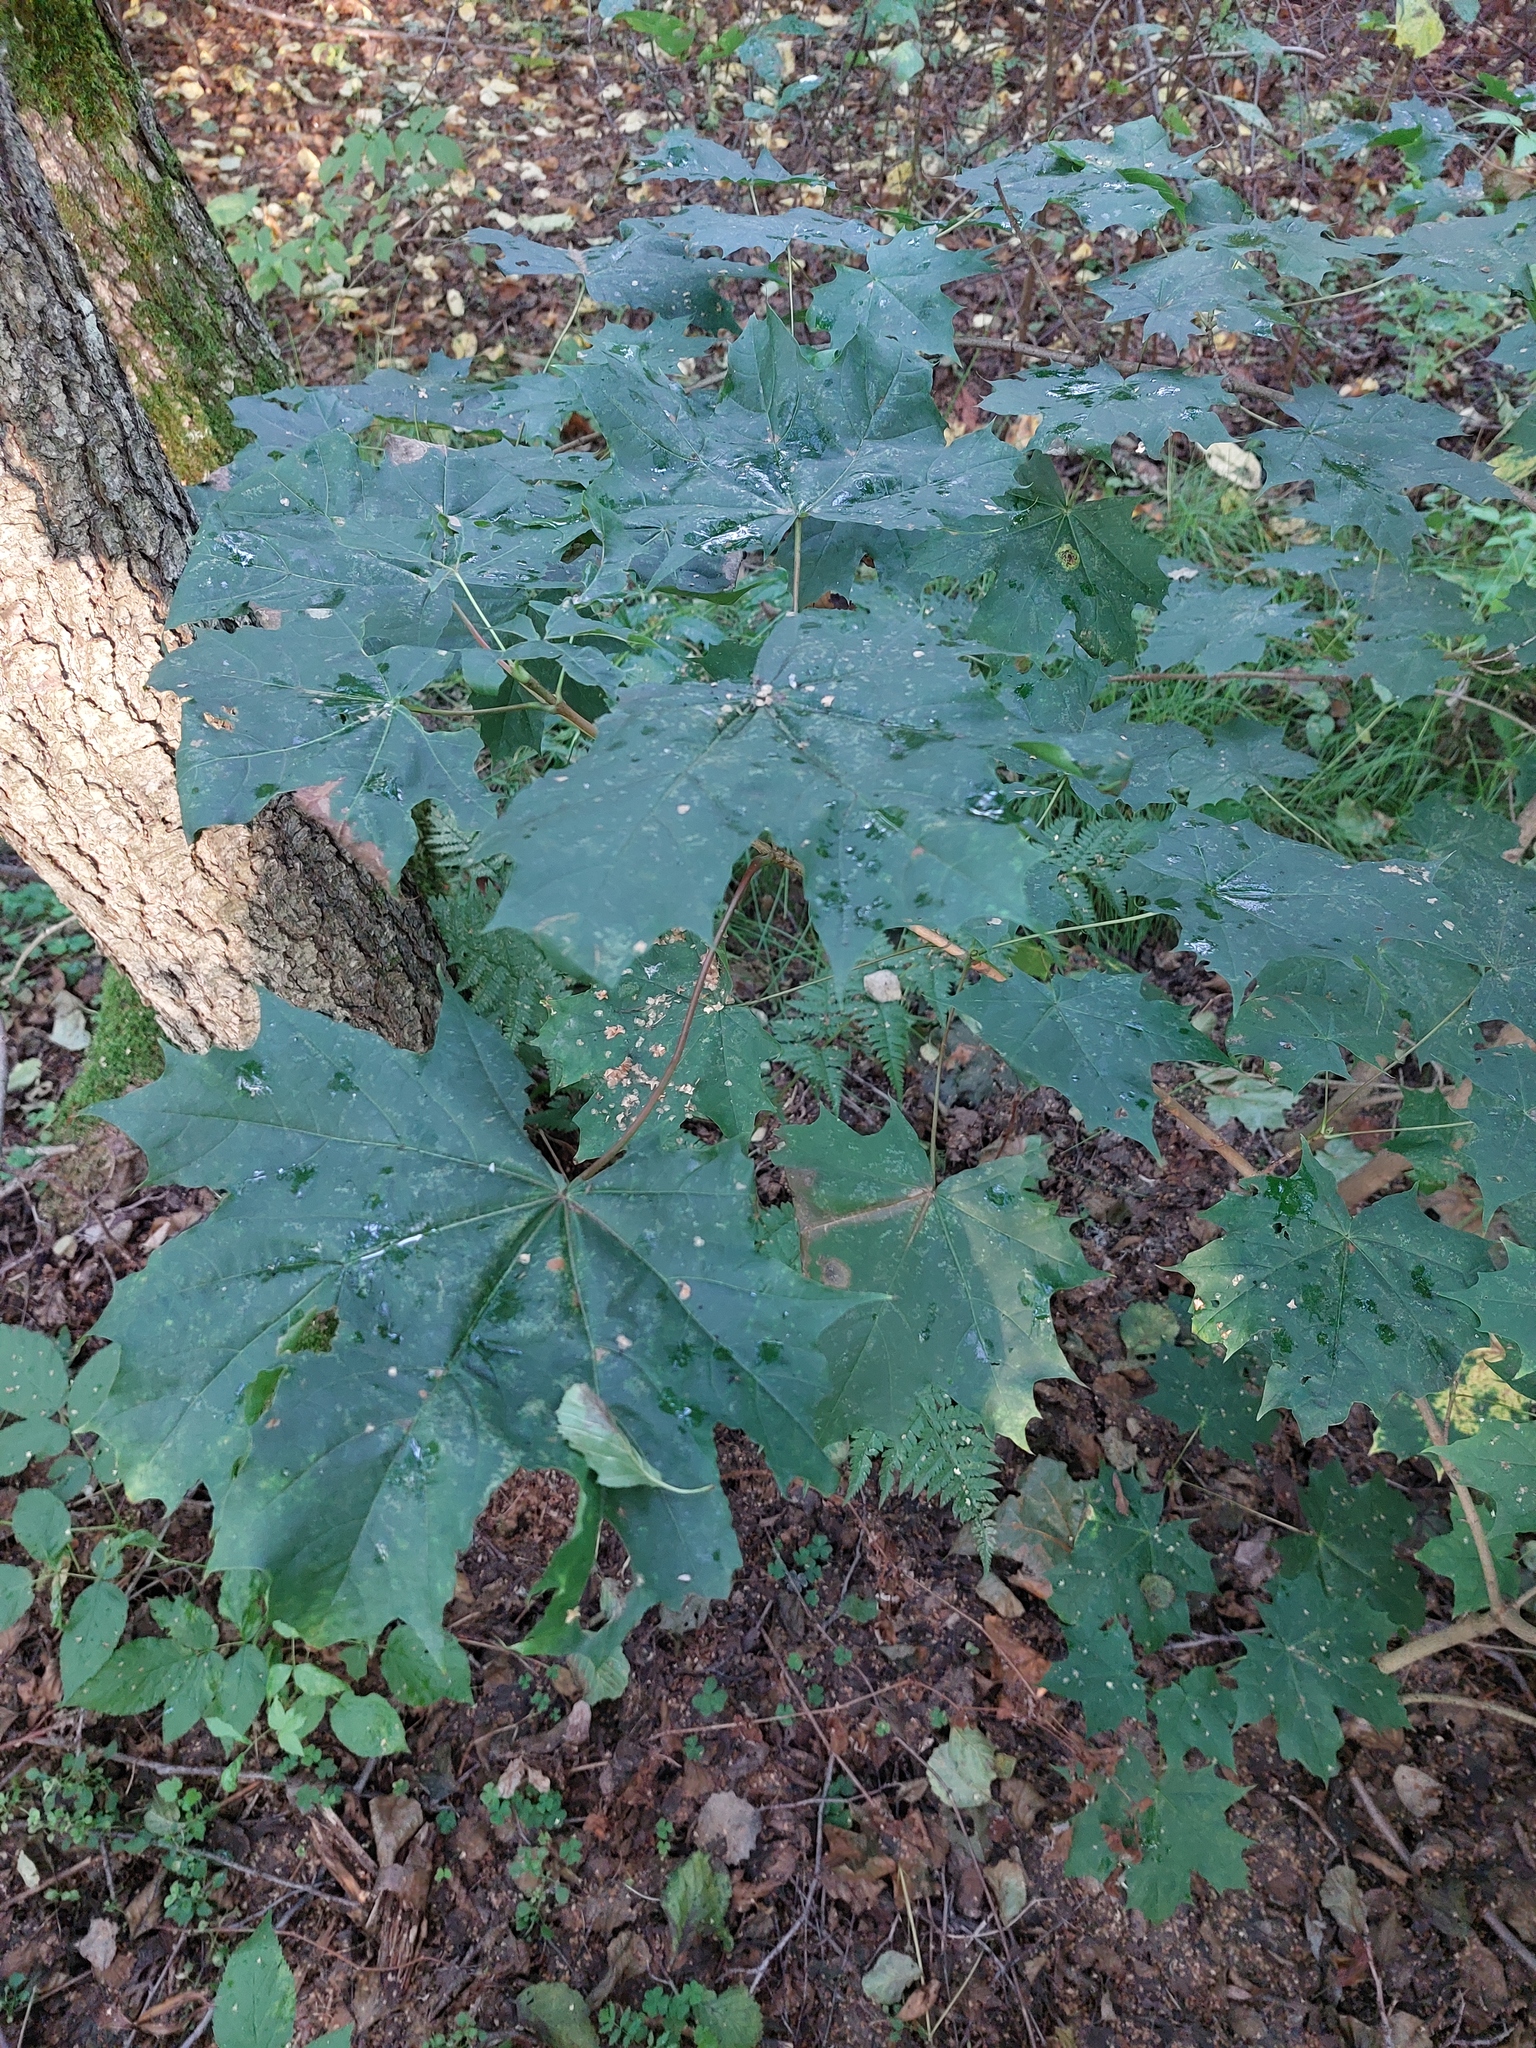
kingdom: Plantae
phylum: Tracheophyta
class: Magnoliopsida
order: Sapindales
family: Sapindaceae
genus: Acer
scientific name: Acer platanoides
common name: Norway maple
